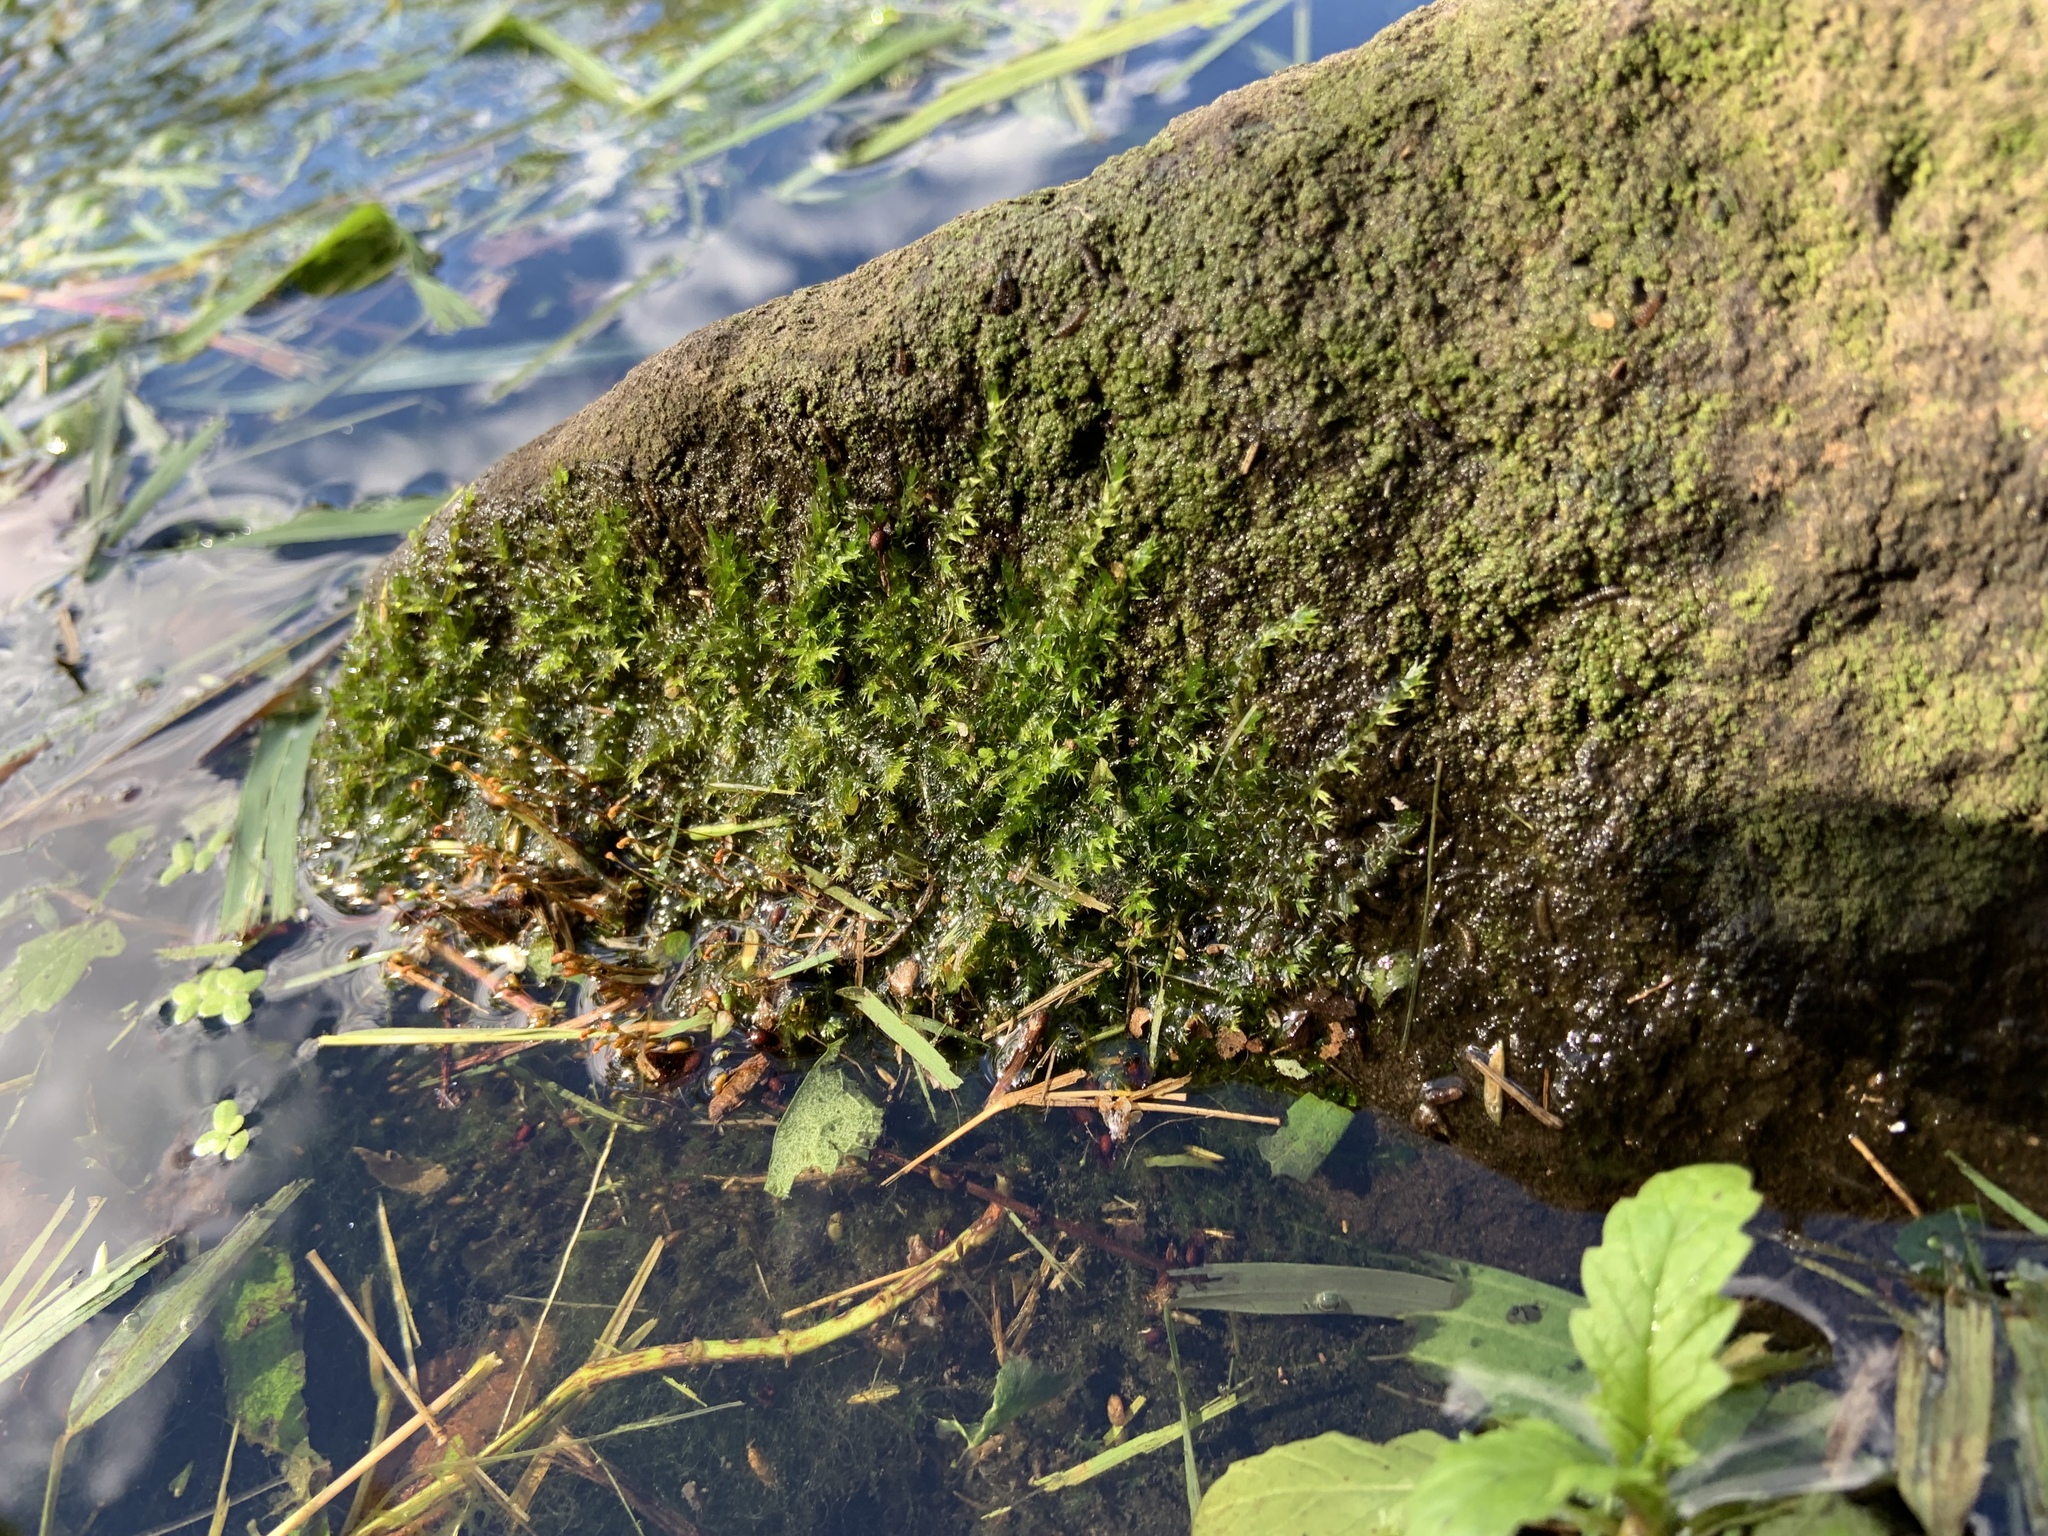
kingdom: Plantae
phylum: Bryophyta
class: Bryopsida
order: Hypnales
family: Calliergonaceae
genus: Calliergon
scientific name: Calliergon cordifolium
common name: Heart-leaved spear moss
